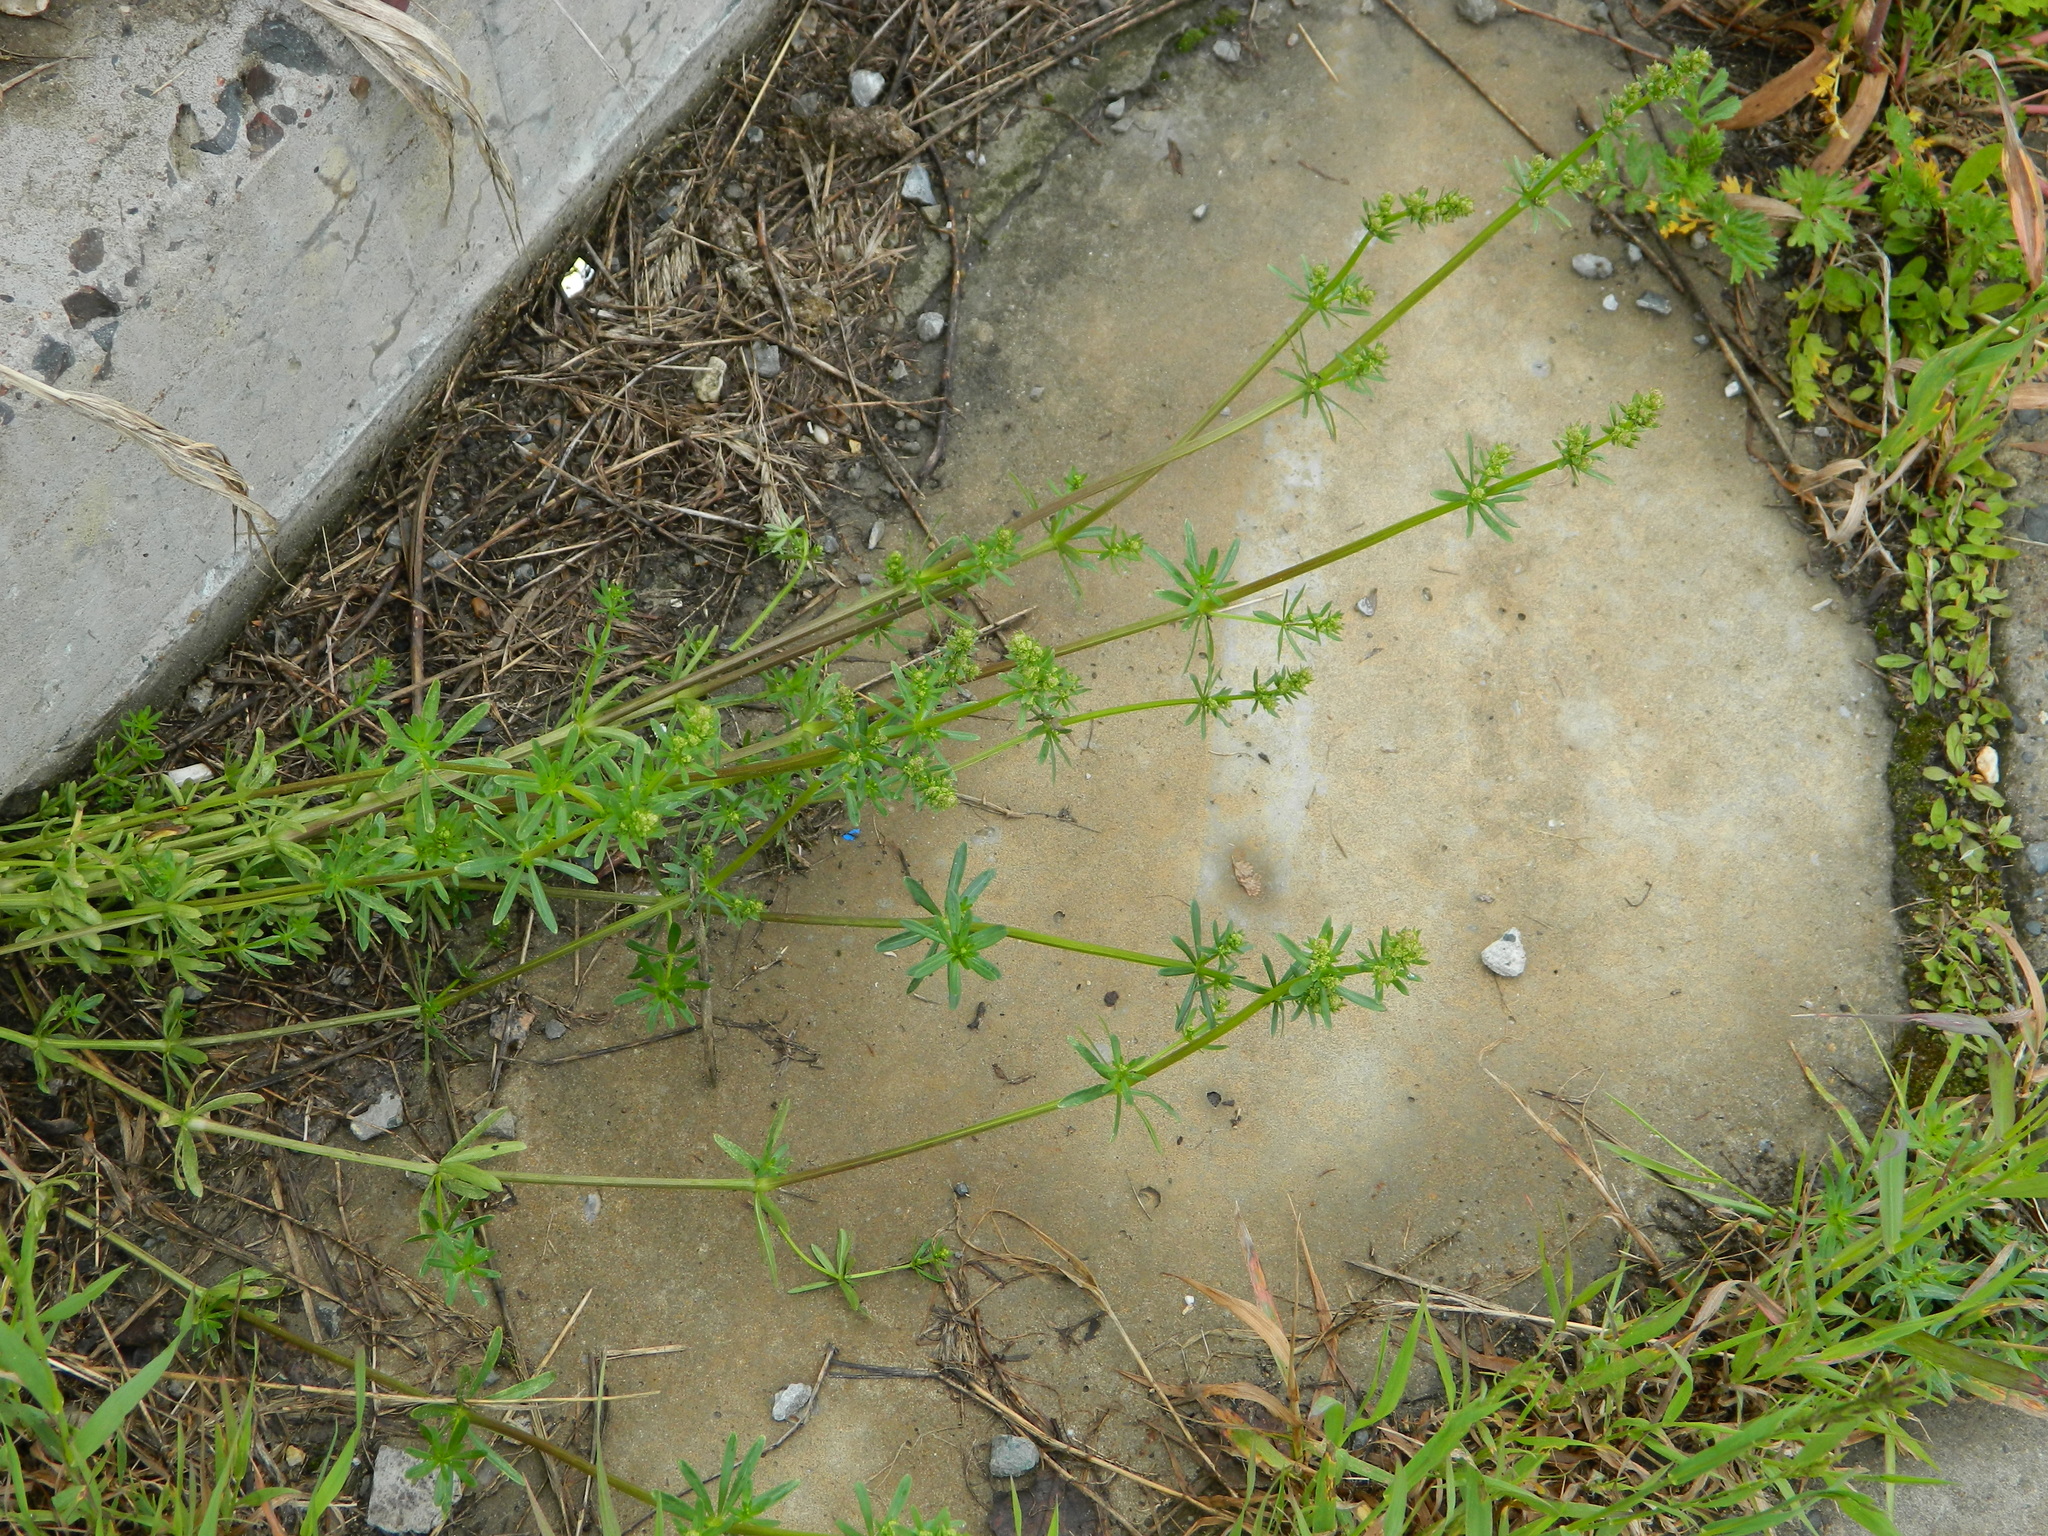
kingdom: Plantae
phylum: Tracheophyta
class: Magnoliopsida
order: Gentianales
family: Rubiaceae
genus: Galium
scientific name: Galium mollugo
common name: Hedge bedstraw
